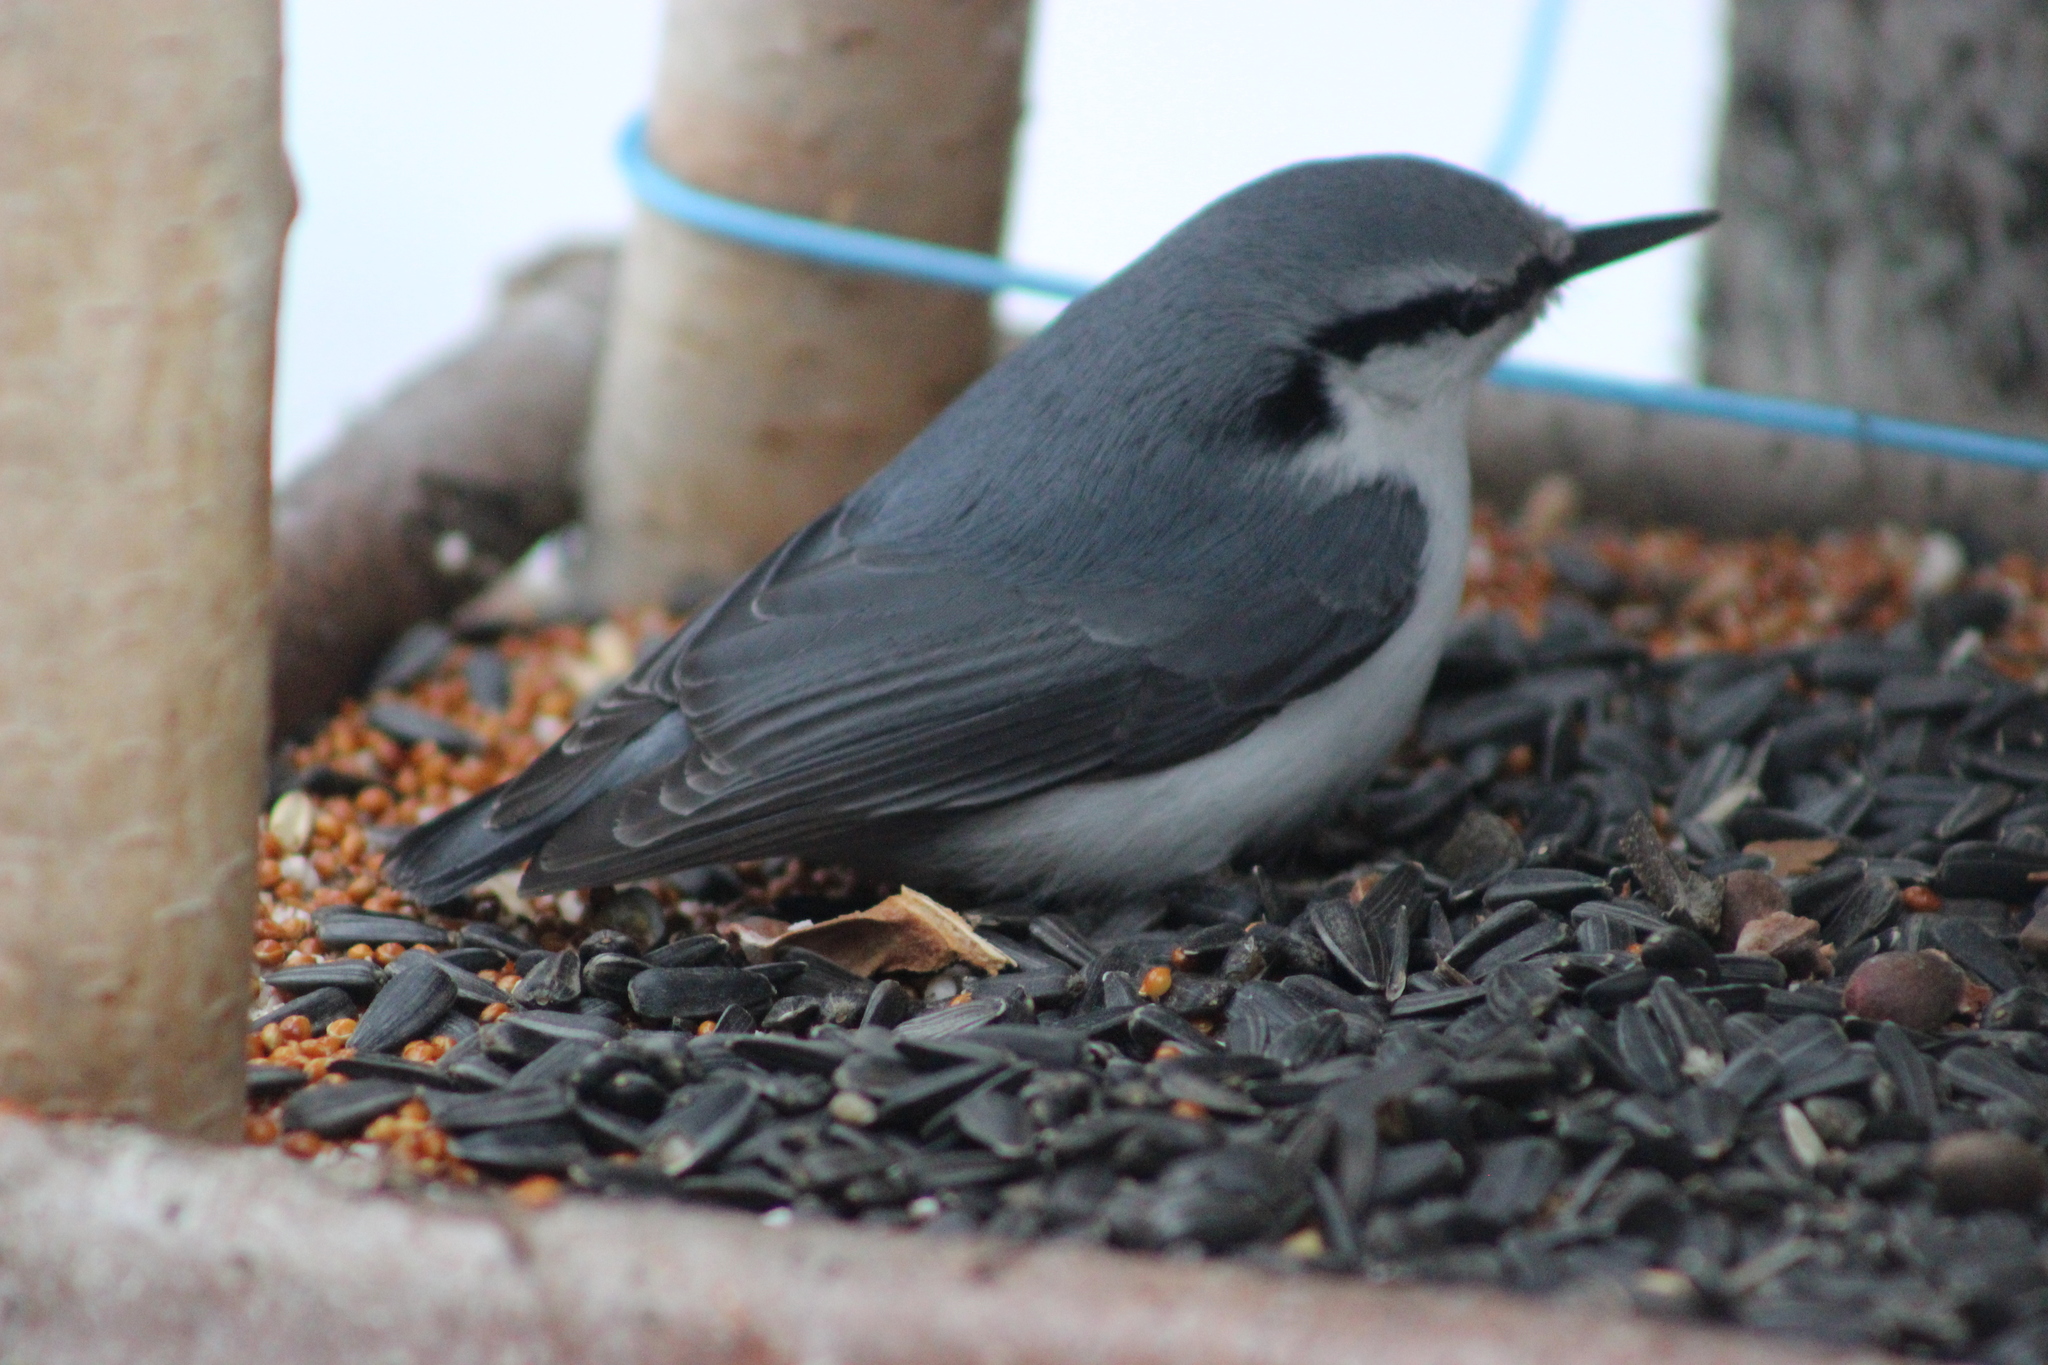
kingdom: Animalia
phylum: Chordata
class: Aves
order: Passeriformes
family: Sittidae
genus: Sitta
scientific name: Sitta europaea
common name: Eurasian nuthatch
